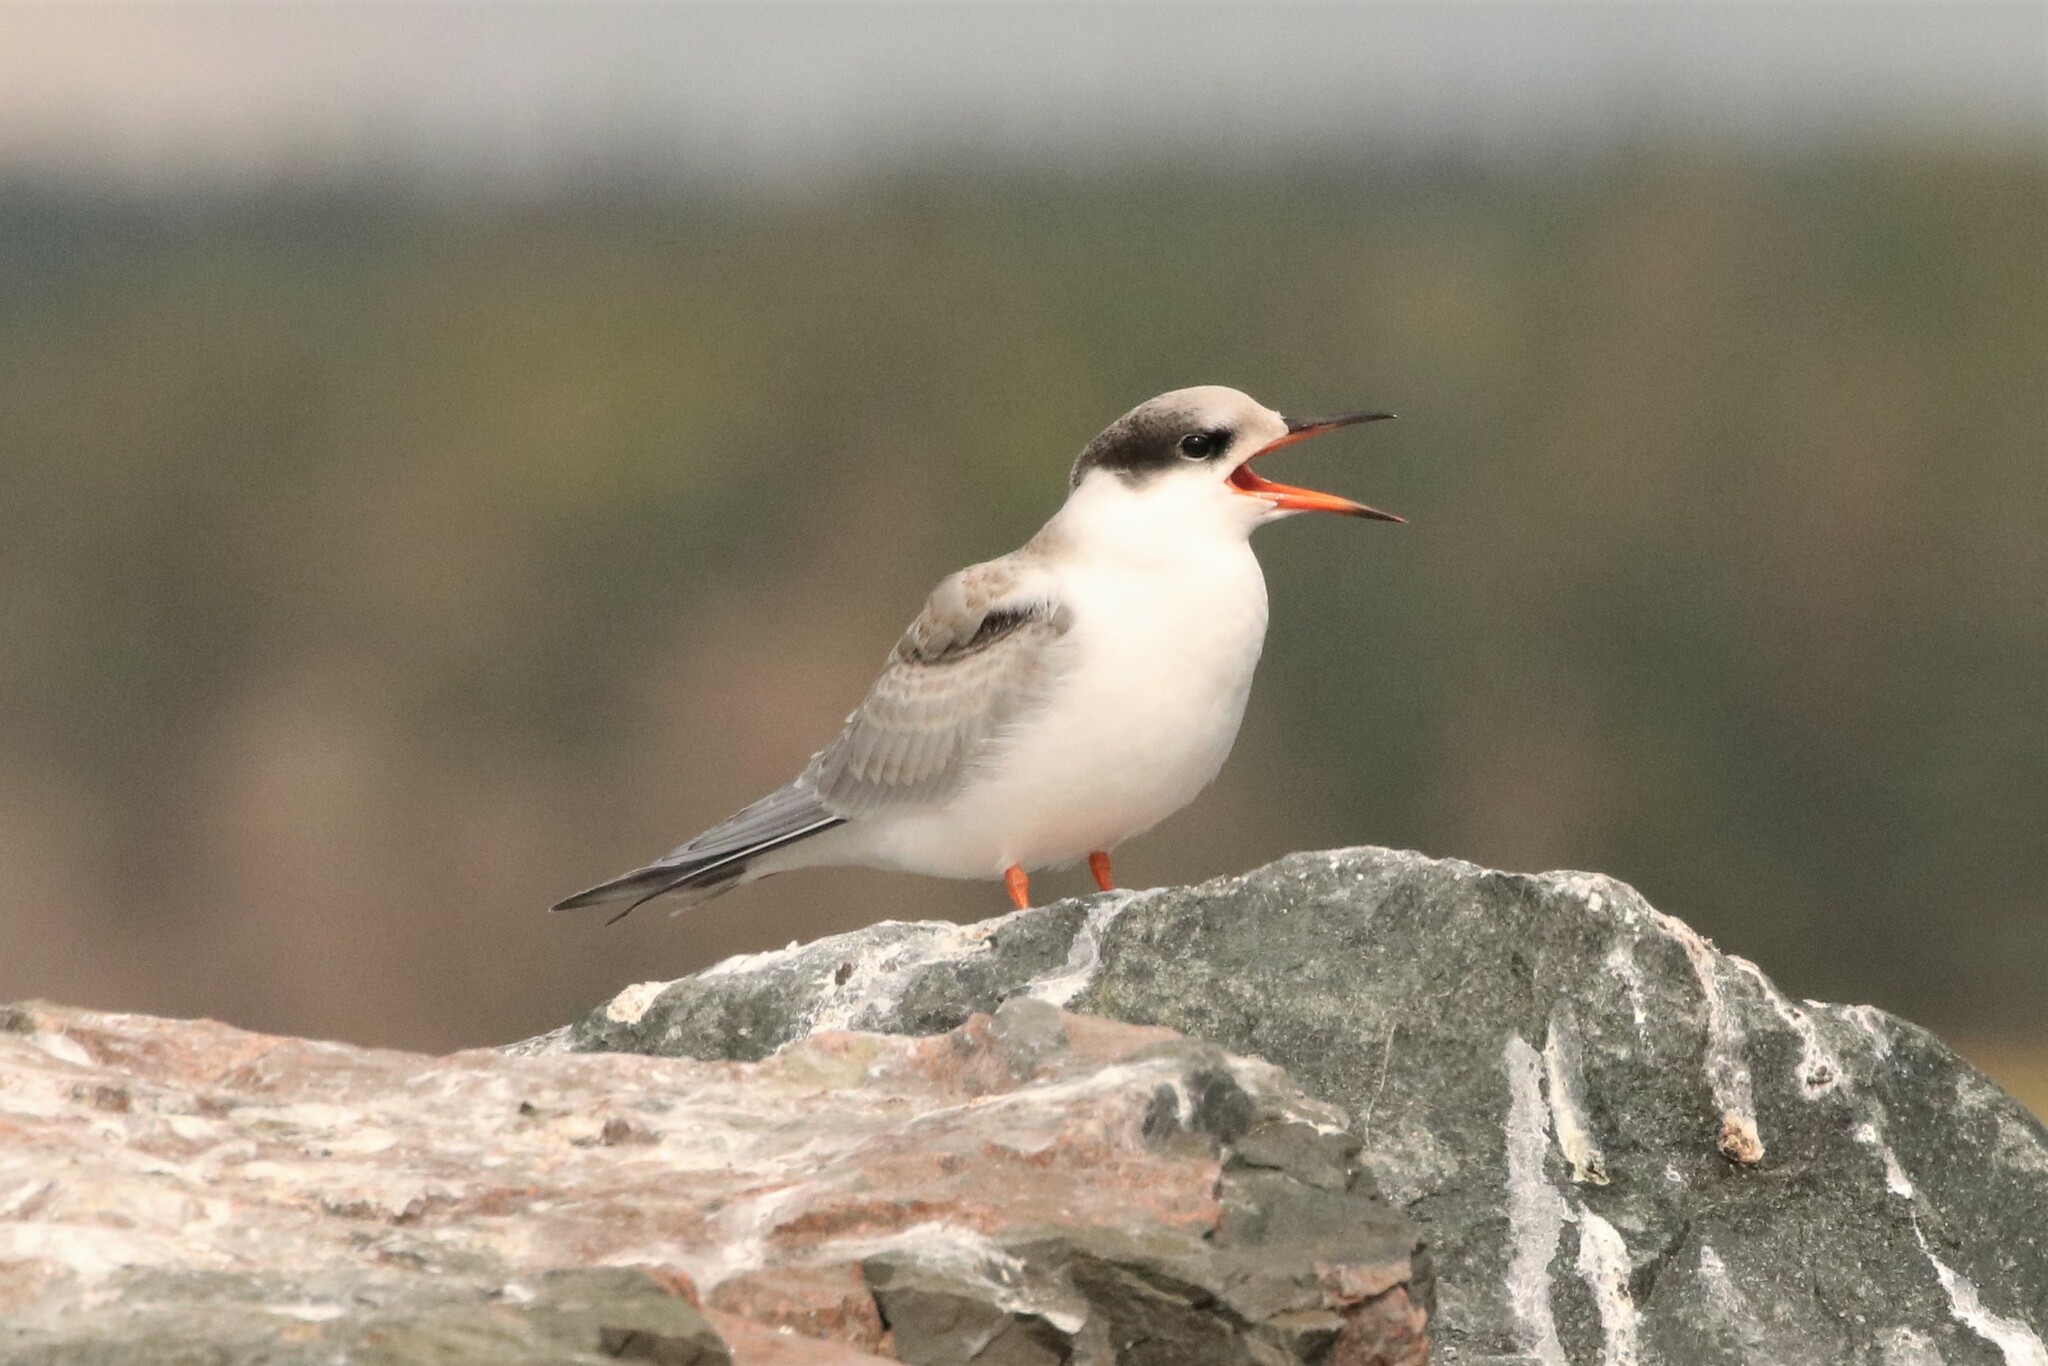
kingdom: Animalia
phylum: Chordata
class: Aves
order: Charadriiformes
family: Laridae
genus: Sterna
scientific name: Sterna hirundo
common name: Common tern
